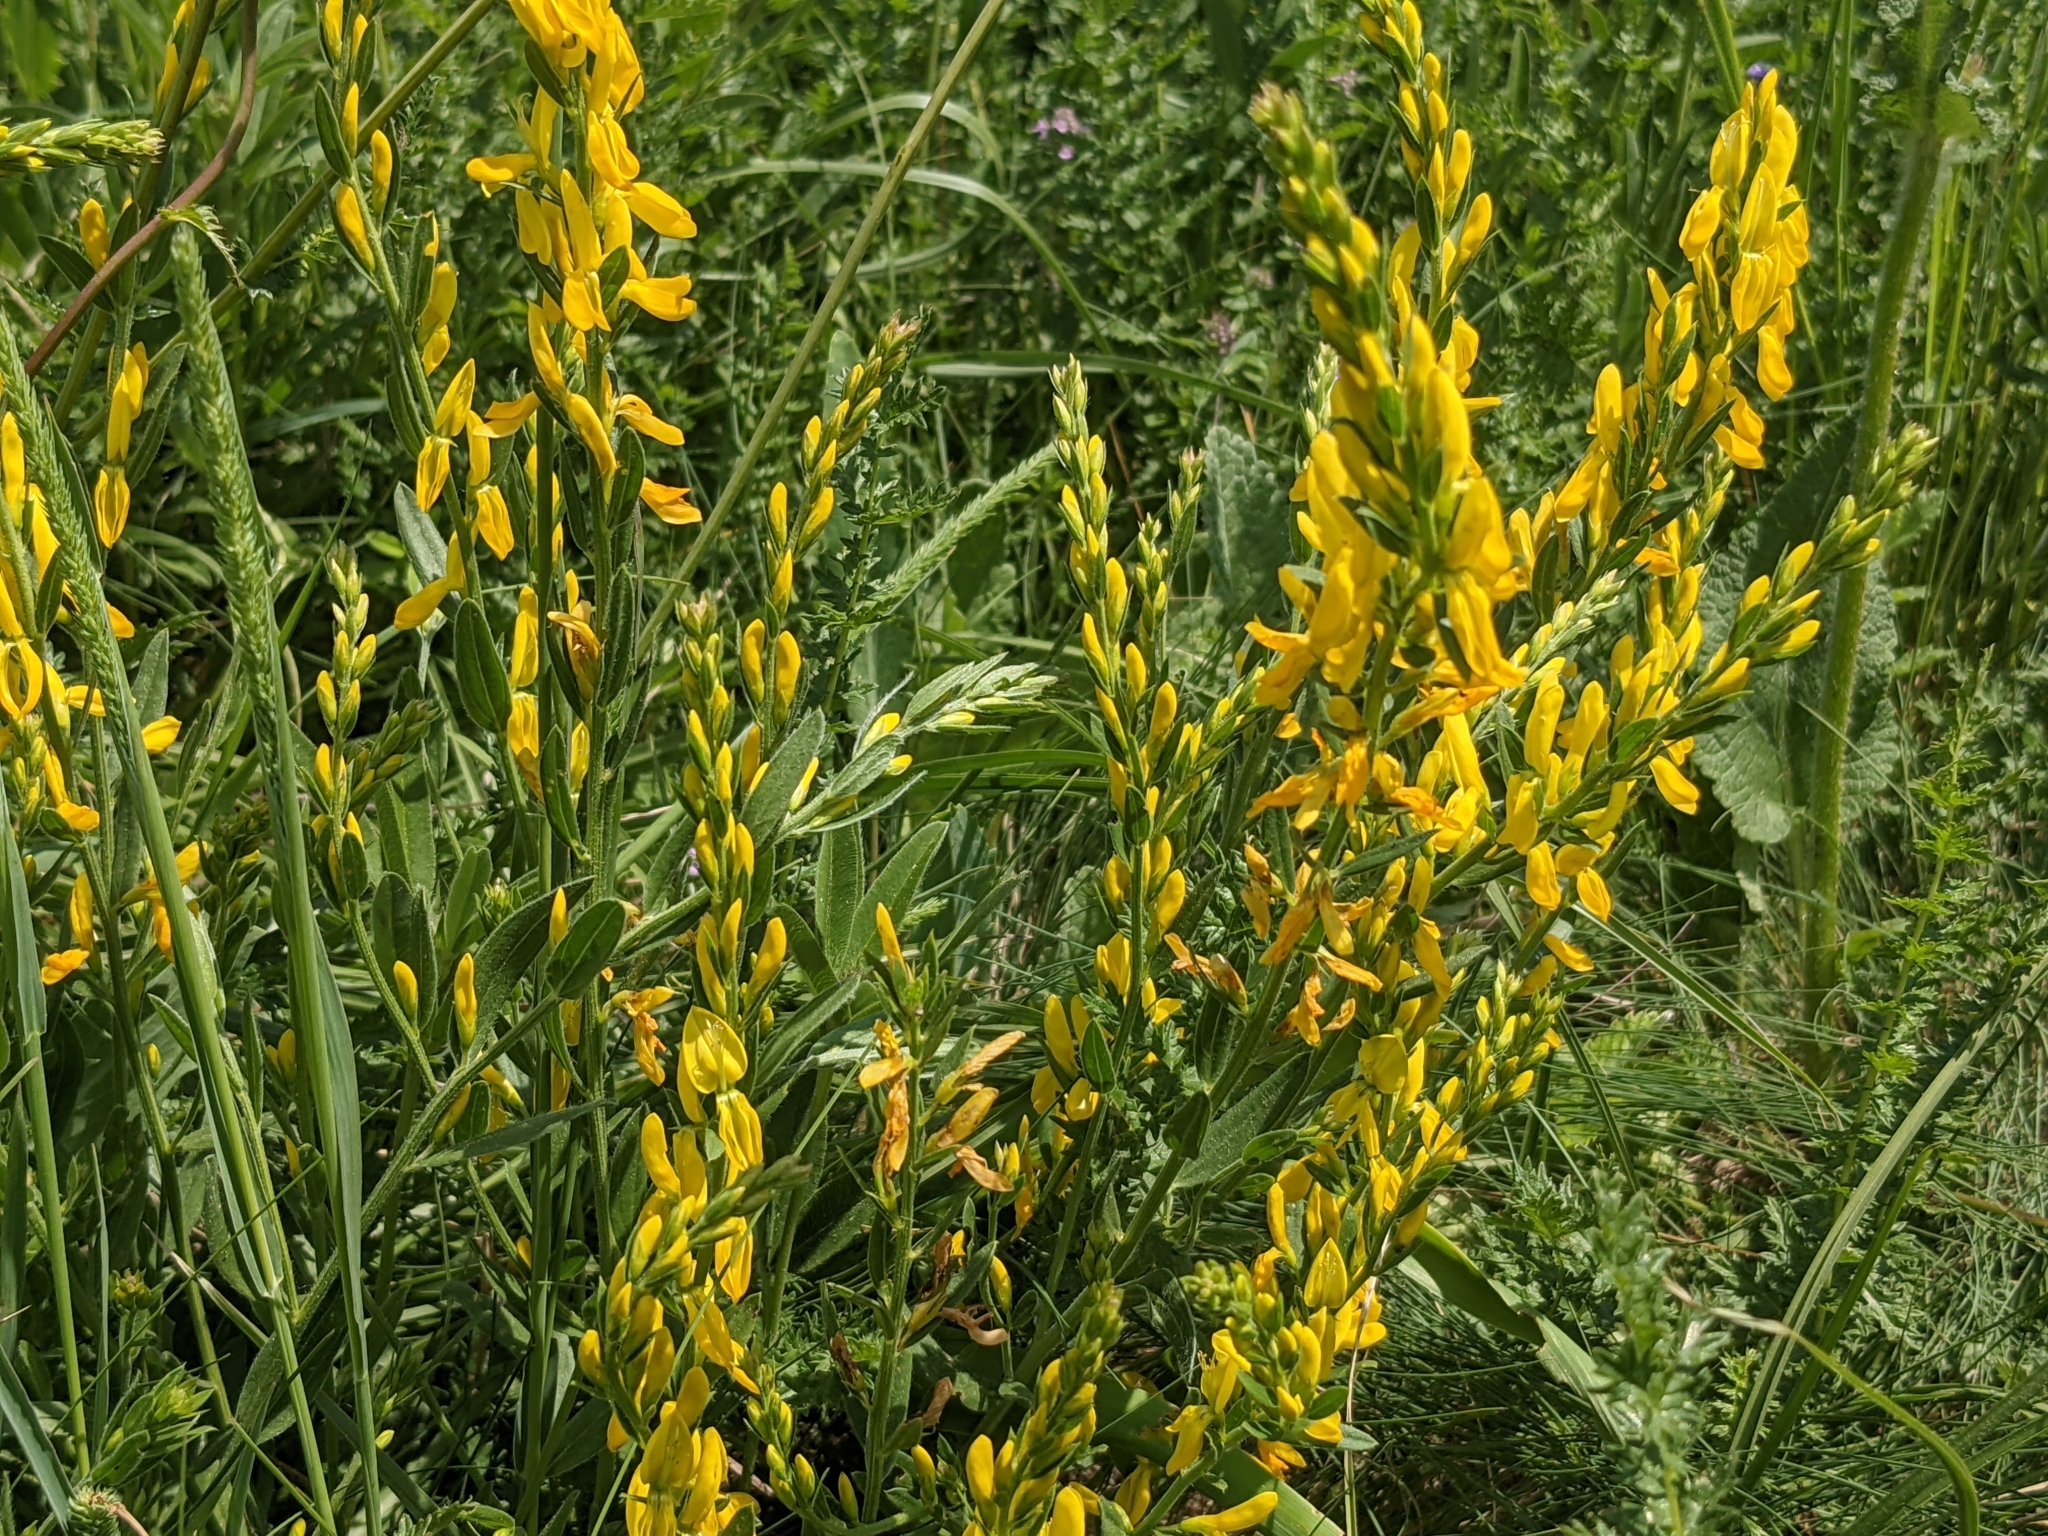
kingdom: Plantae
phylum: Tracheophyta
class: Magnoliopsida
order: Fabales
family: Fabaceae
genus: Genista
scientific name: Genista tinctoria
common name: Dyer's greenweed
